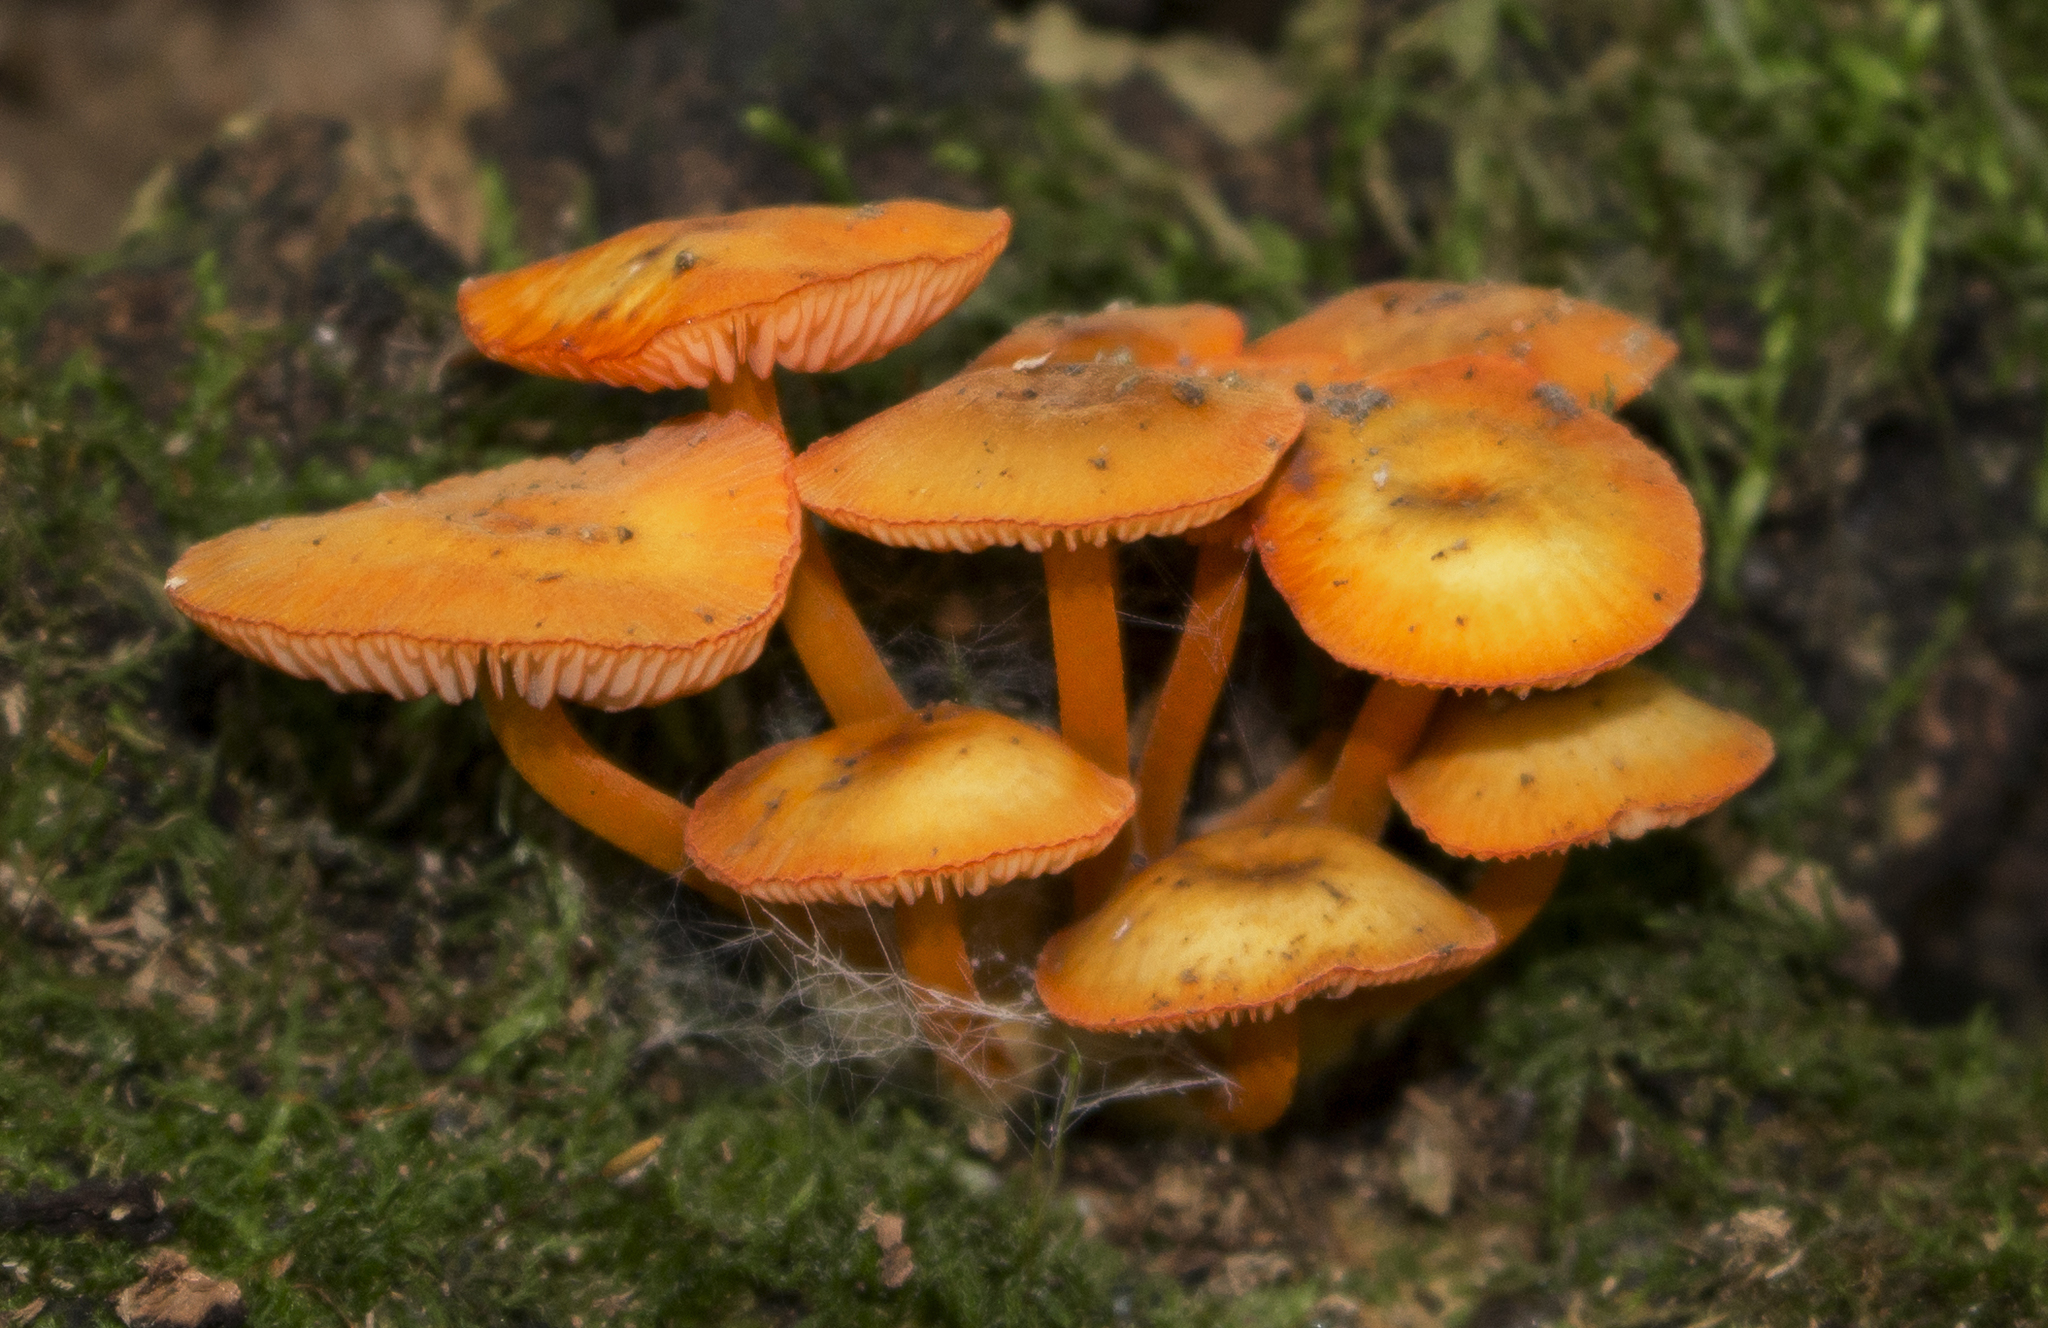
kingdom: Fungi
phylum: Basidiomycota
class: Agaricomycetes
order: Agaricales
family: Mycenaceae
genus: Mycena
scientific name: Mycena leaiana
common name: Orange mycena
